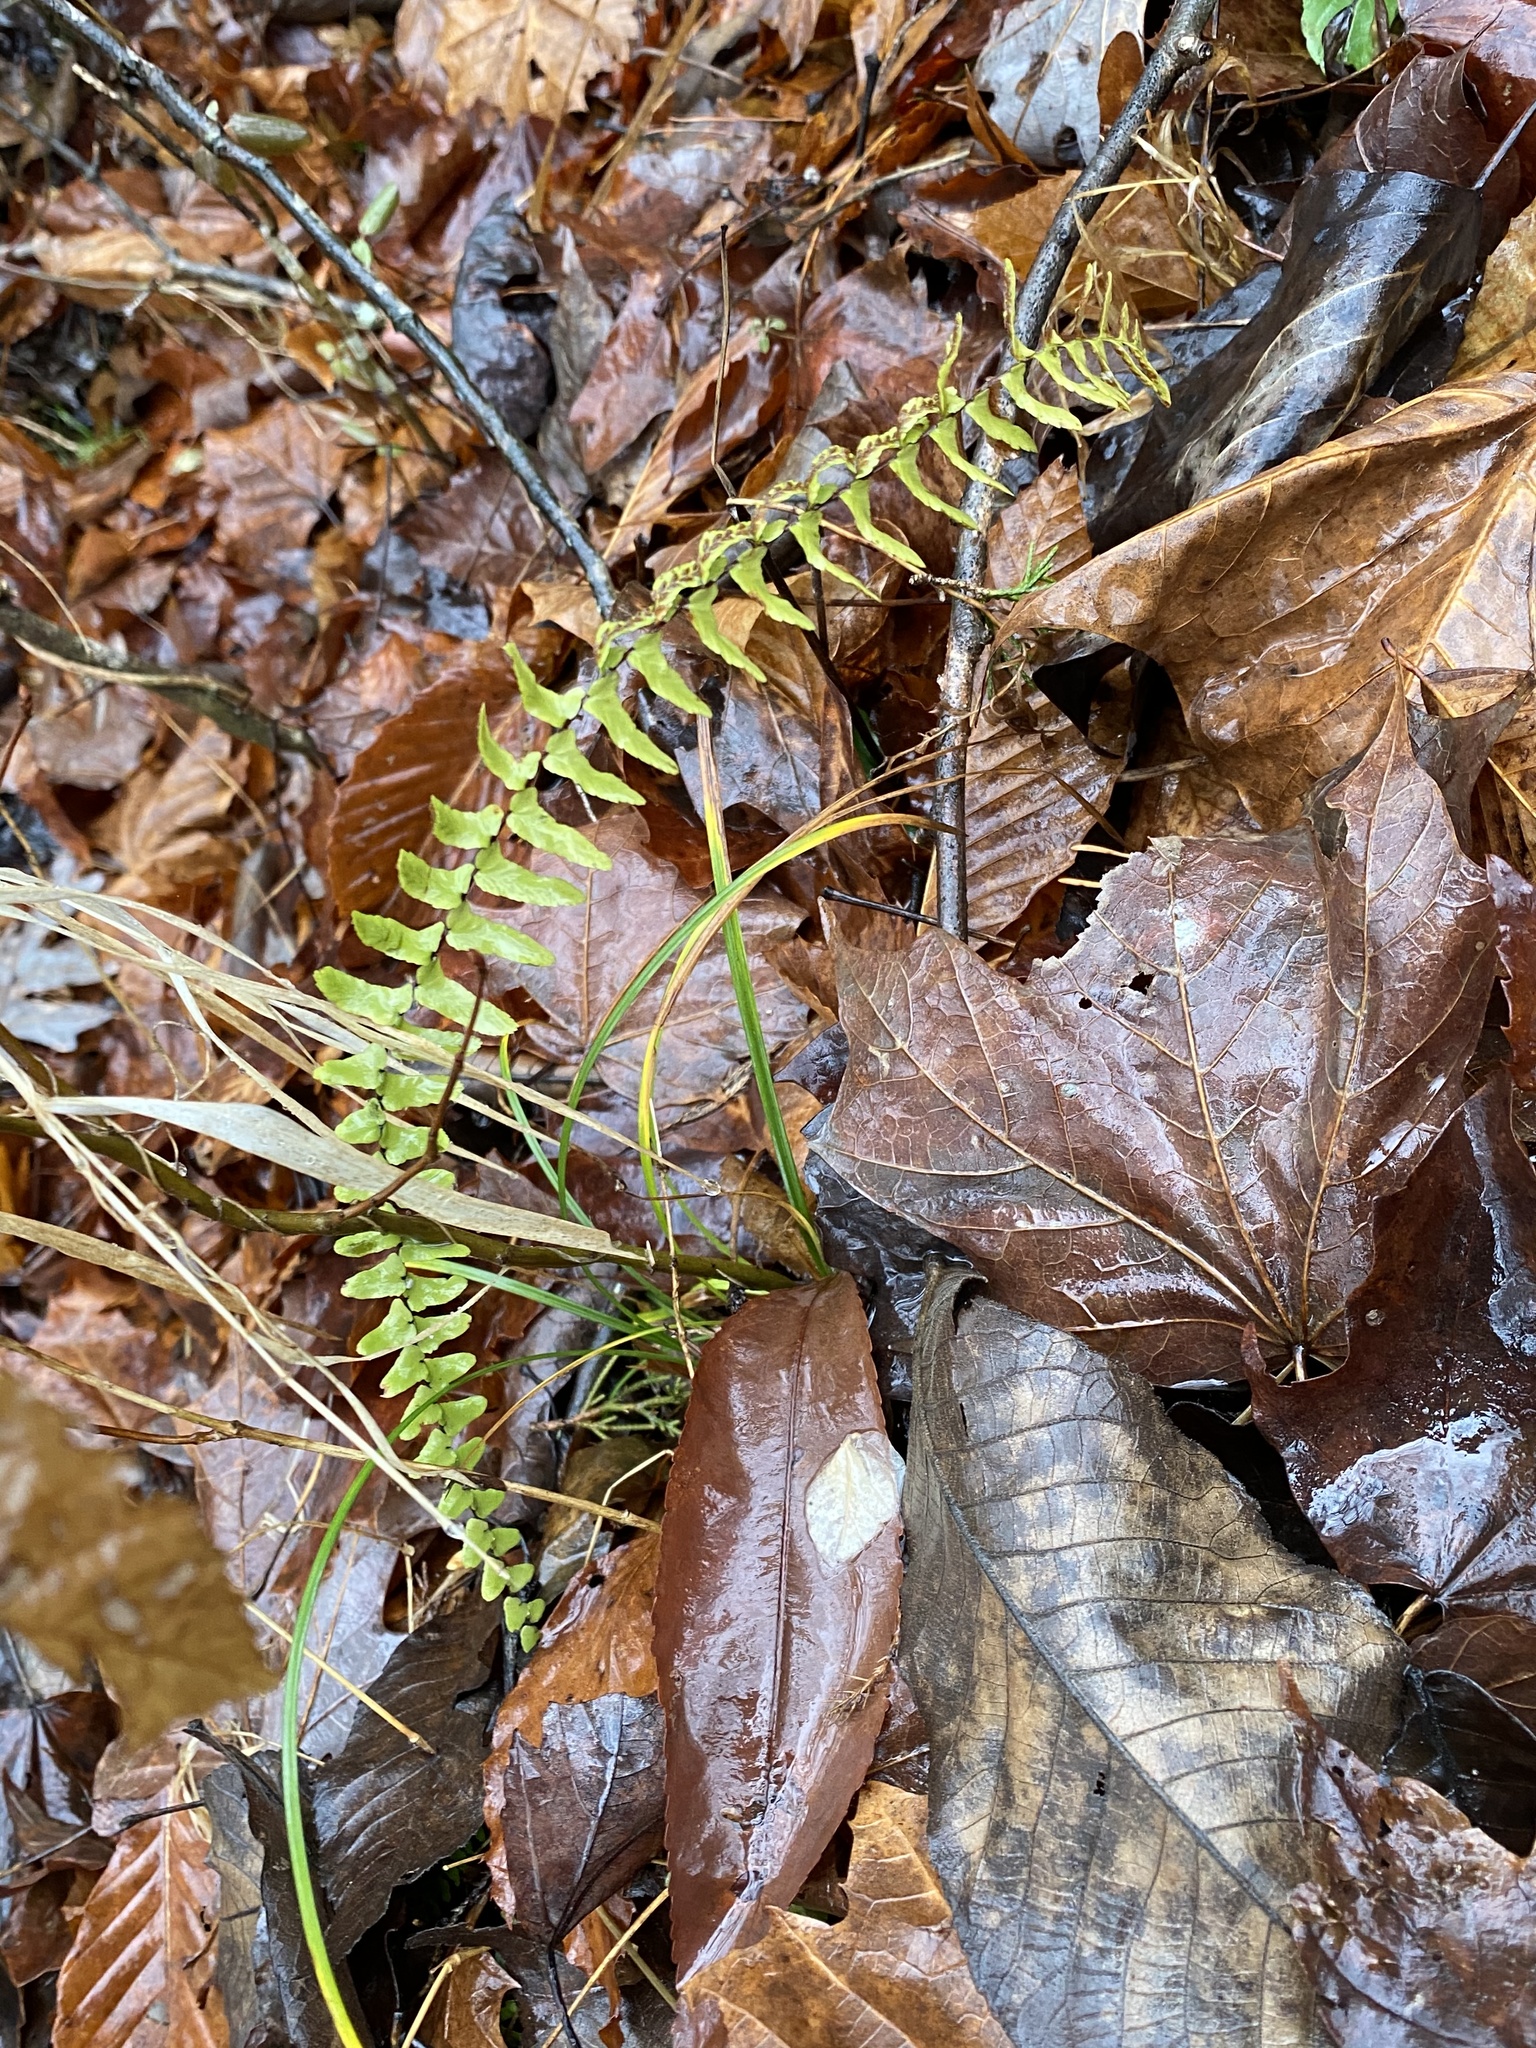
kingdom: Plantae
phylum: Tracheophyta
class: Polypodiopsida
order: Polypodiales
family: Aspleniaceae
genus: Asplenium
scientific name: Asplenium platyneuron
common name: Ebony spleenwort
